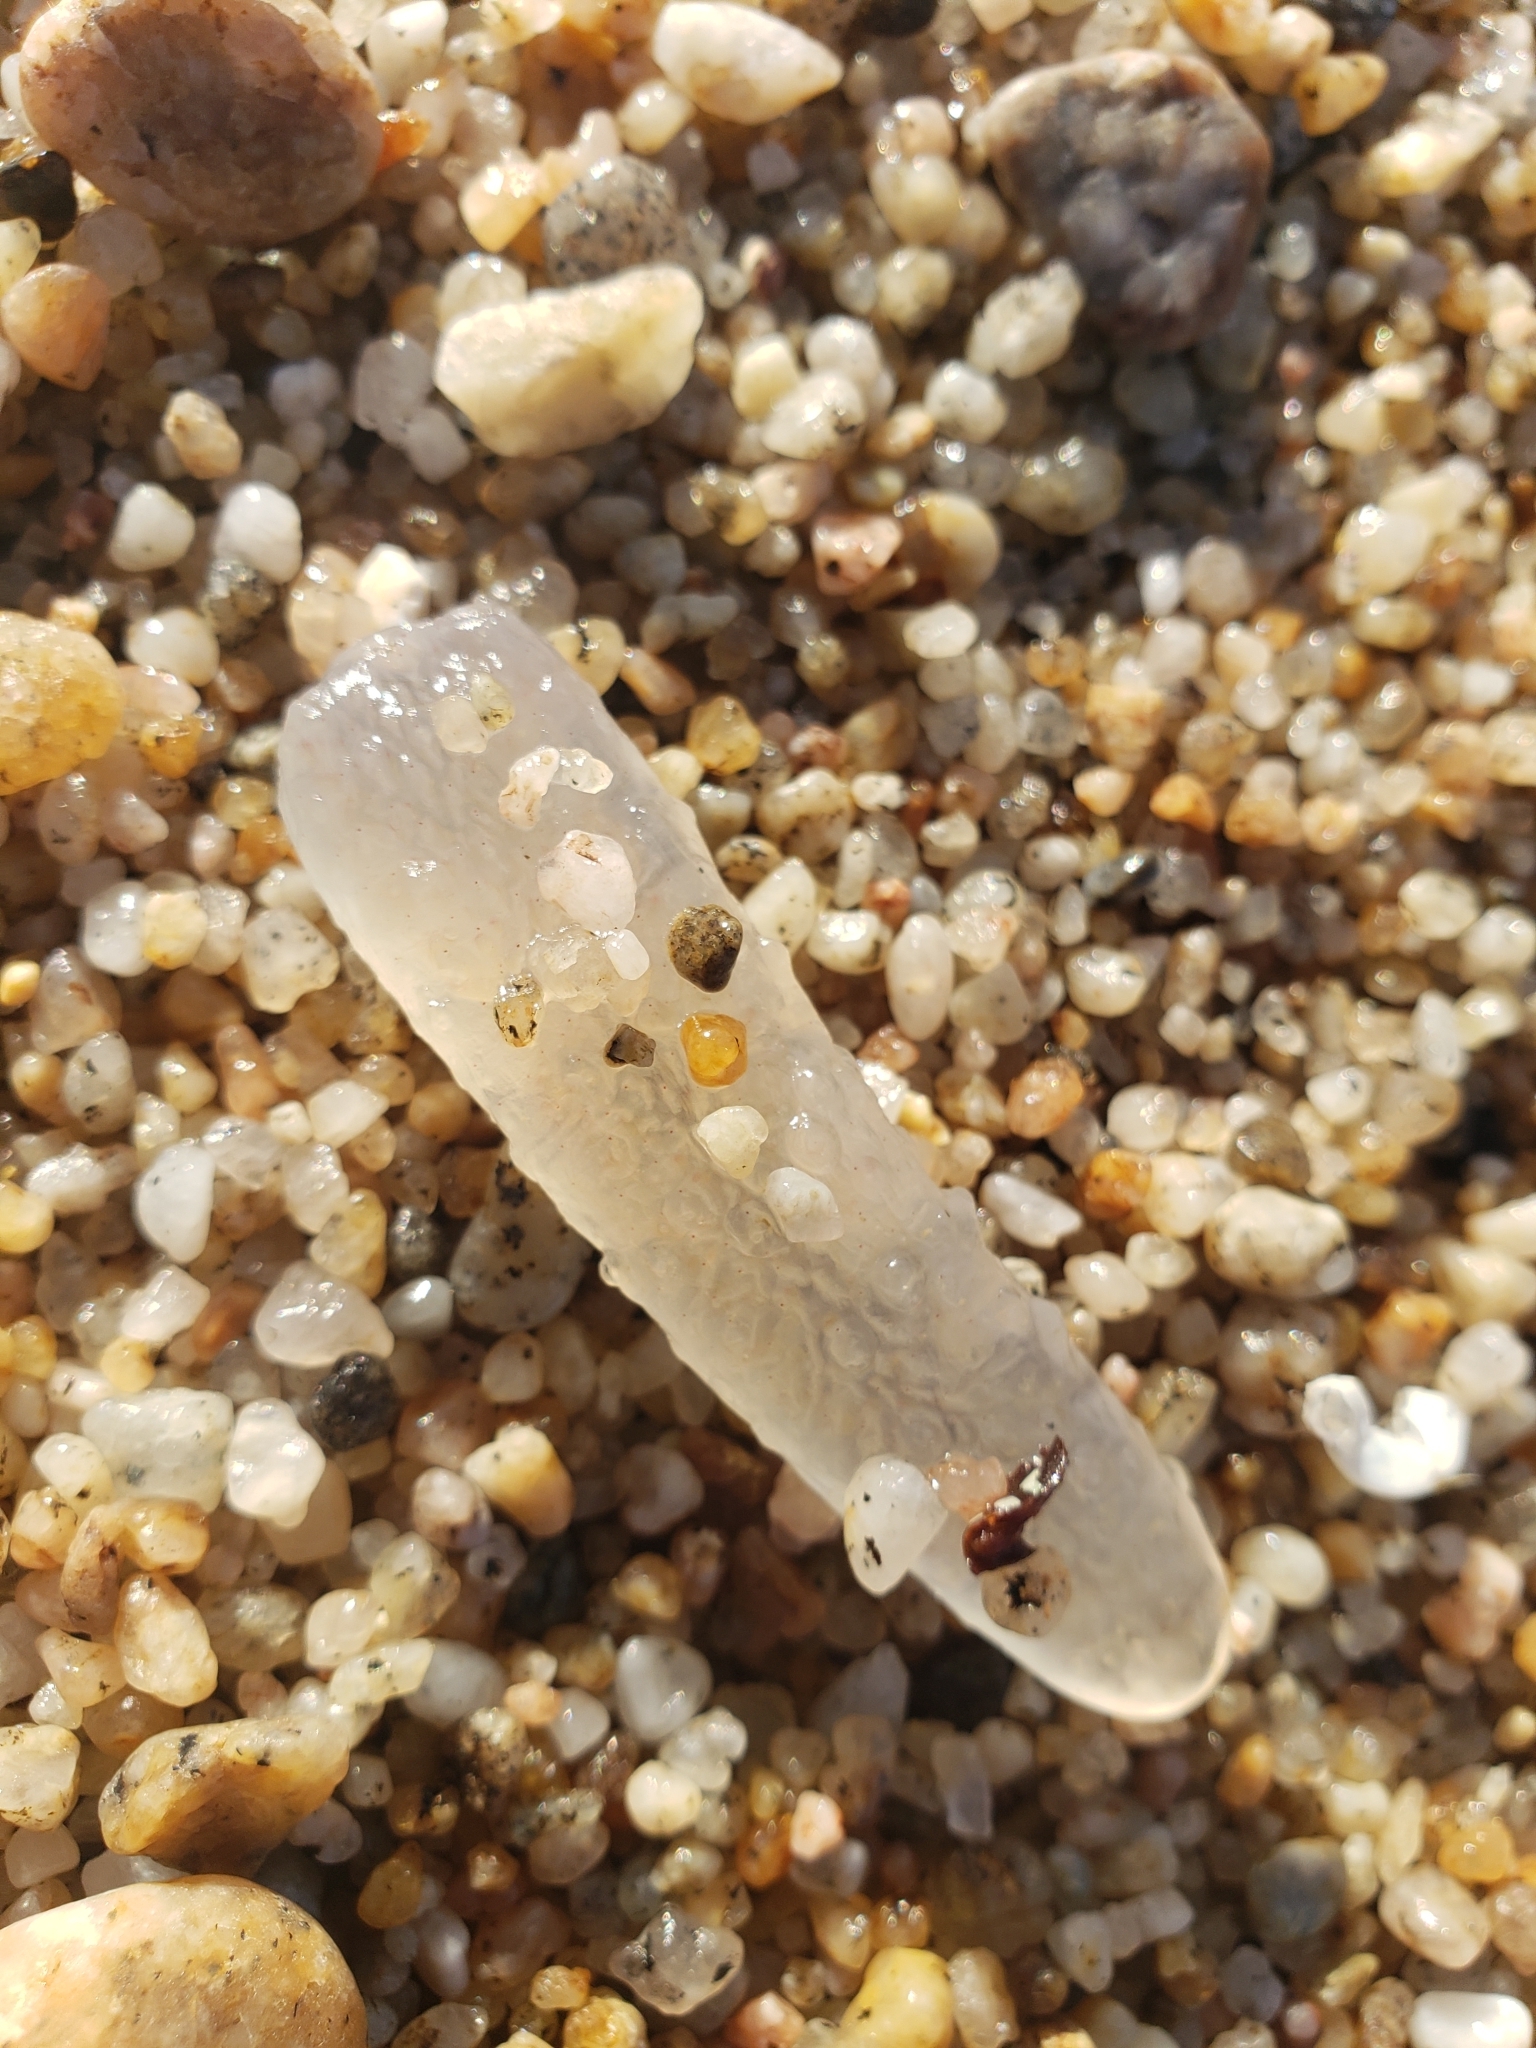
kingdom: Animalia
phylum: Chordata
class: Thaliacea
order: Pyrosomatida
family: Pyrosomatidae
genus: Pyrosoma
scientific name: Pyrosoma atlanticum
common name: Atlantic pyrosomes
